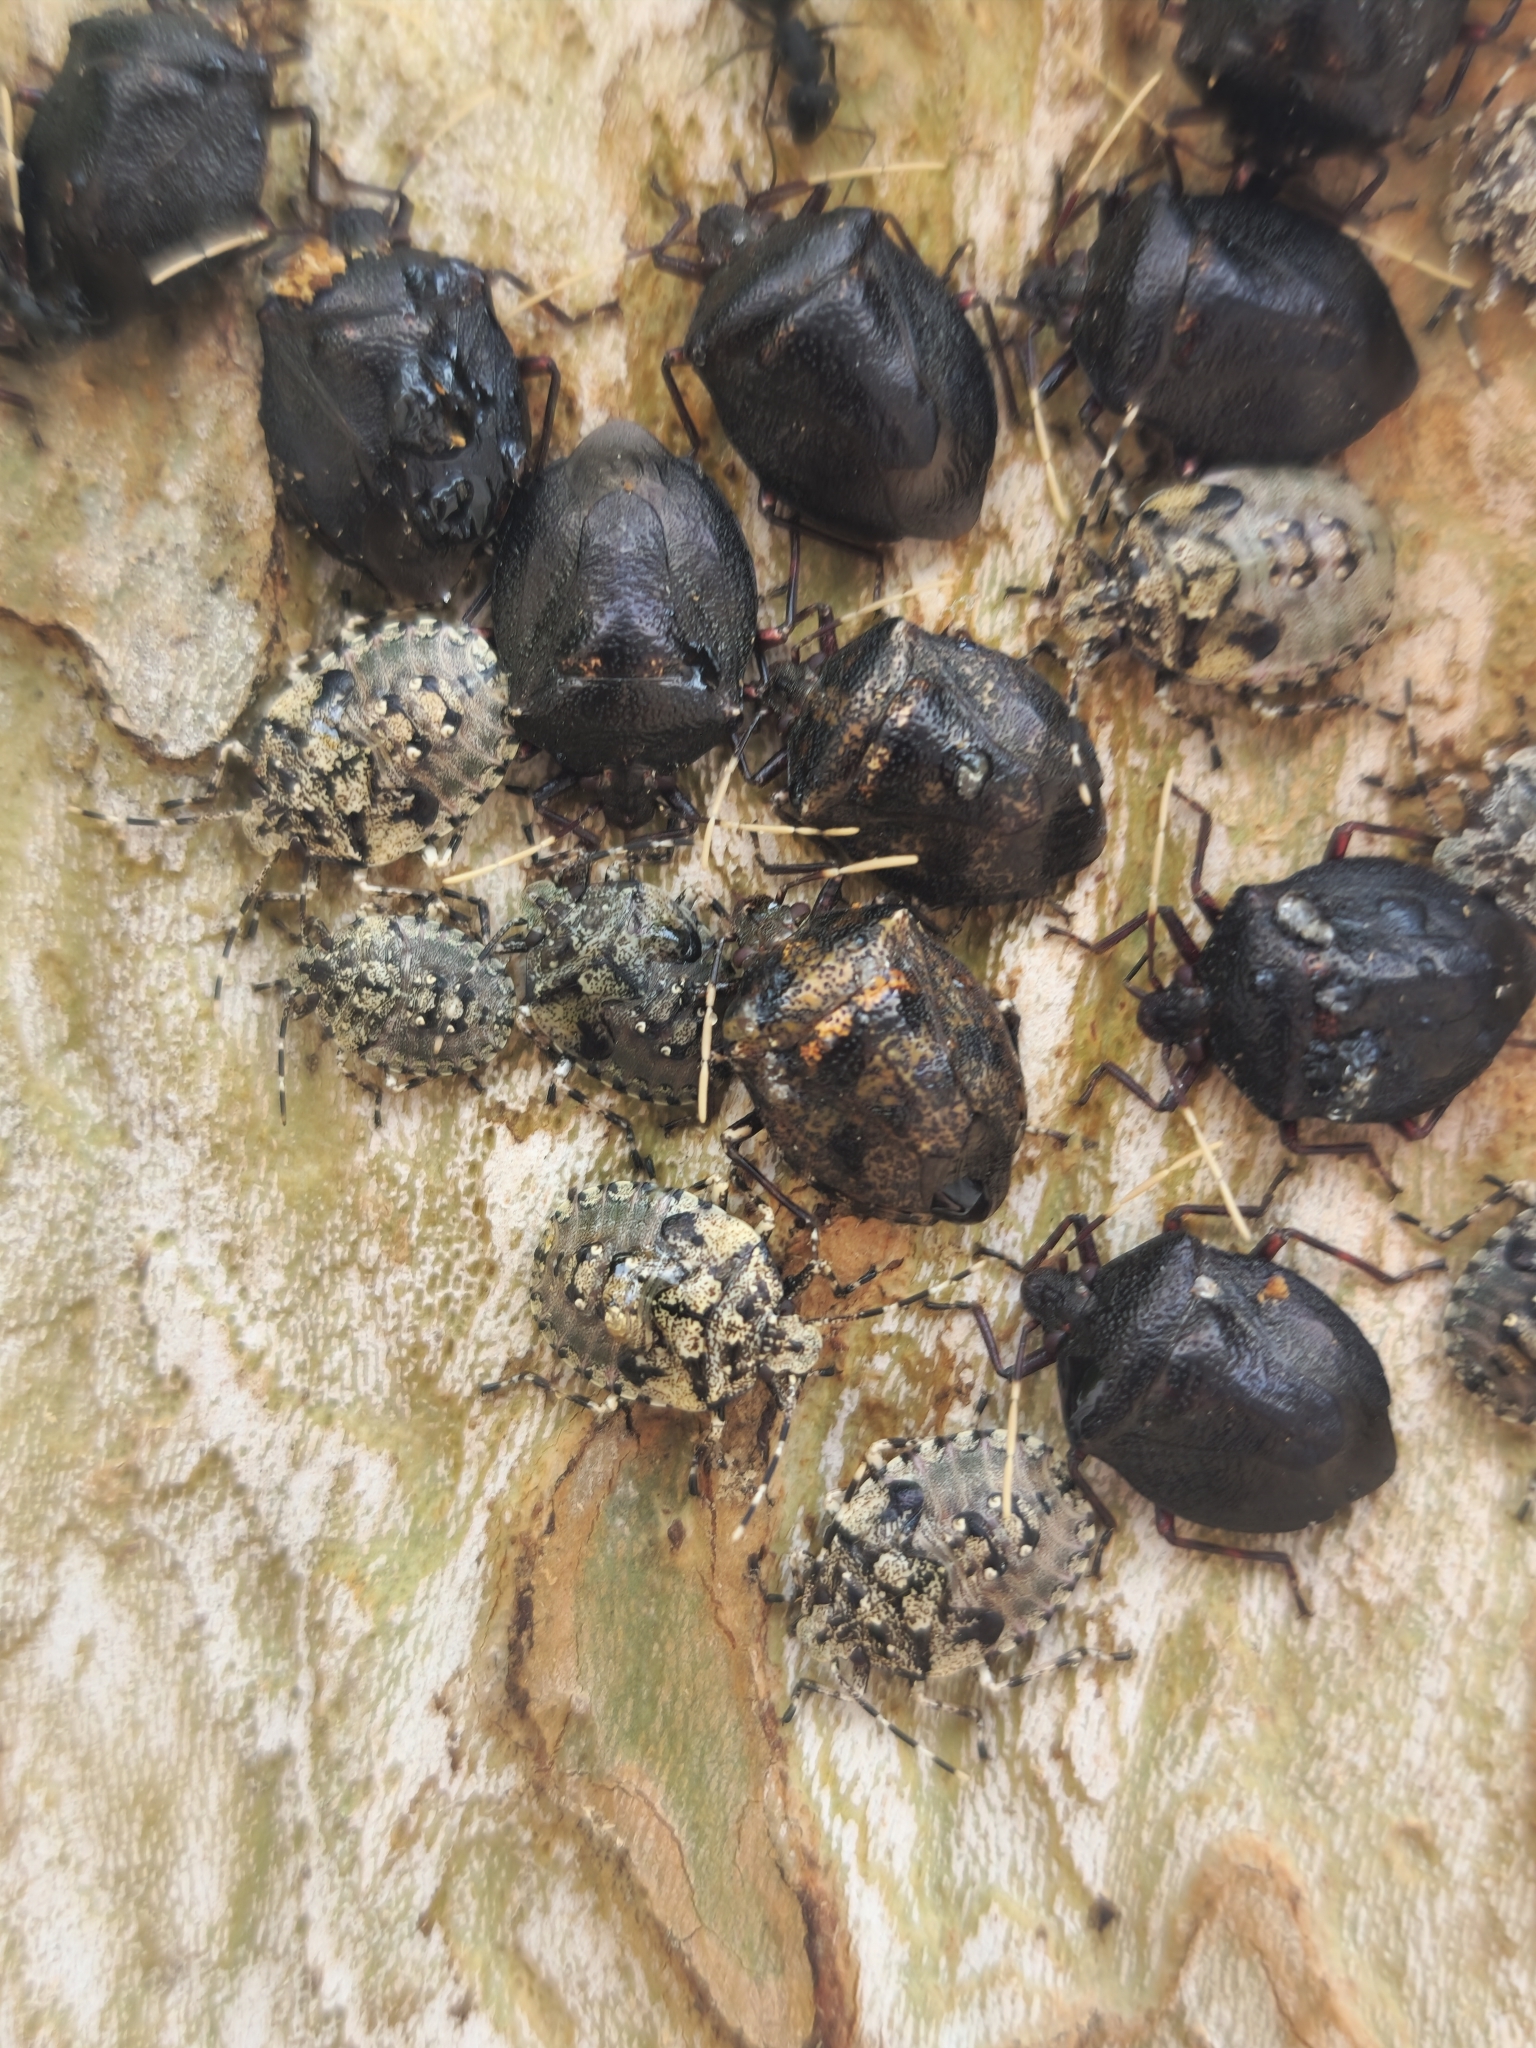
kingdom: Animalia
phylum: Arthropoda
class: Insecta
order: Hemiptera
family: Pentatomidae
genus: Antiteuchus
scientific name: Antiteuchus mixtus
